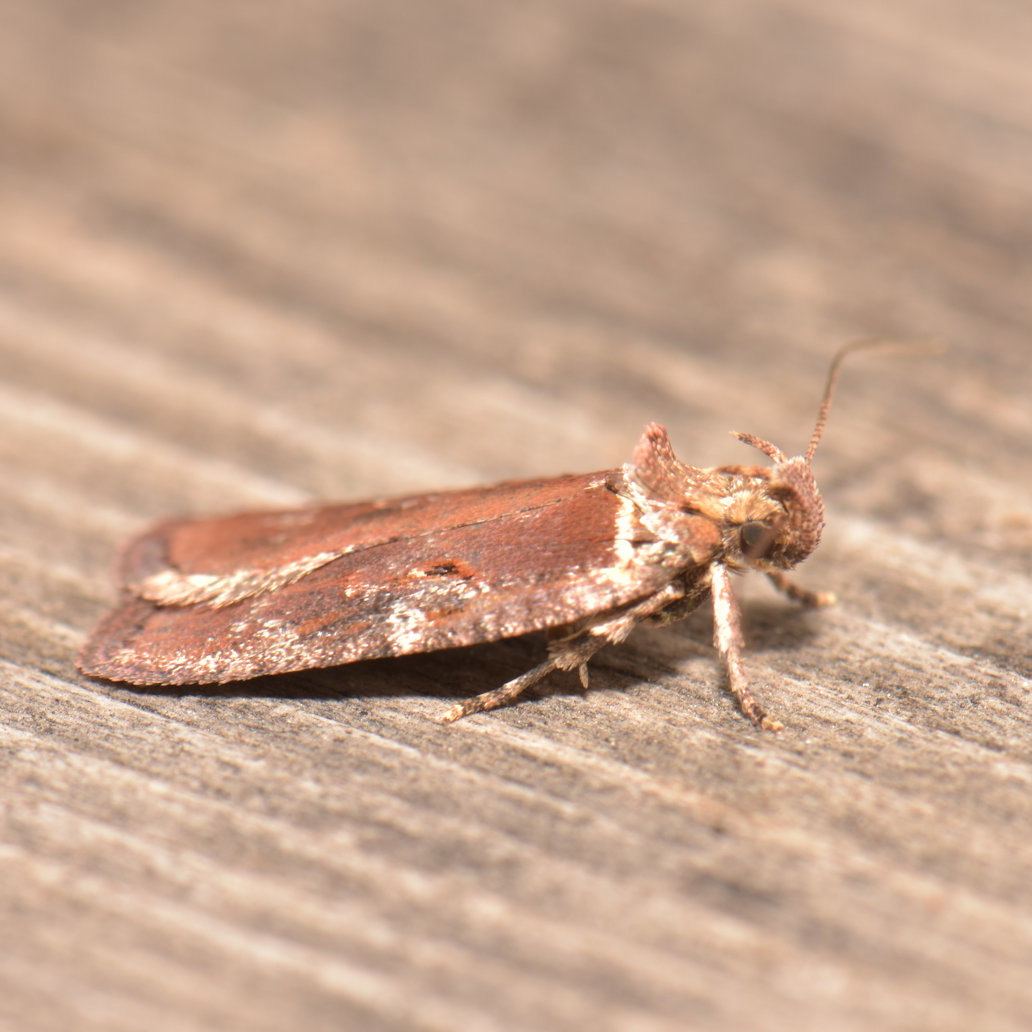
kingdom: Animalia
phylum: Arthropoda
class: Insecta
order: Lepidoptera
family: Depressariidae
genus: Agonopterix
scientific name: Agonopterix lythrella
